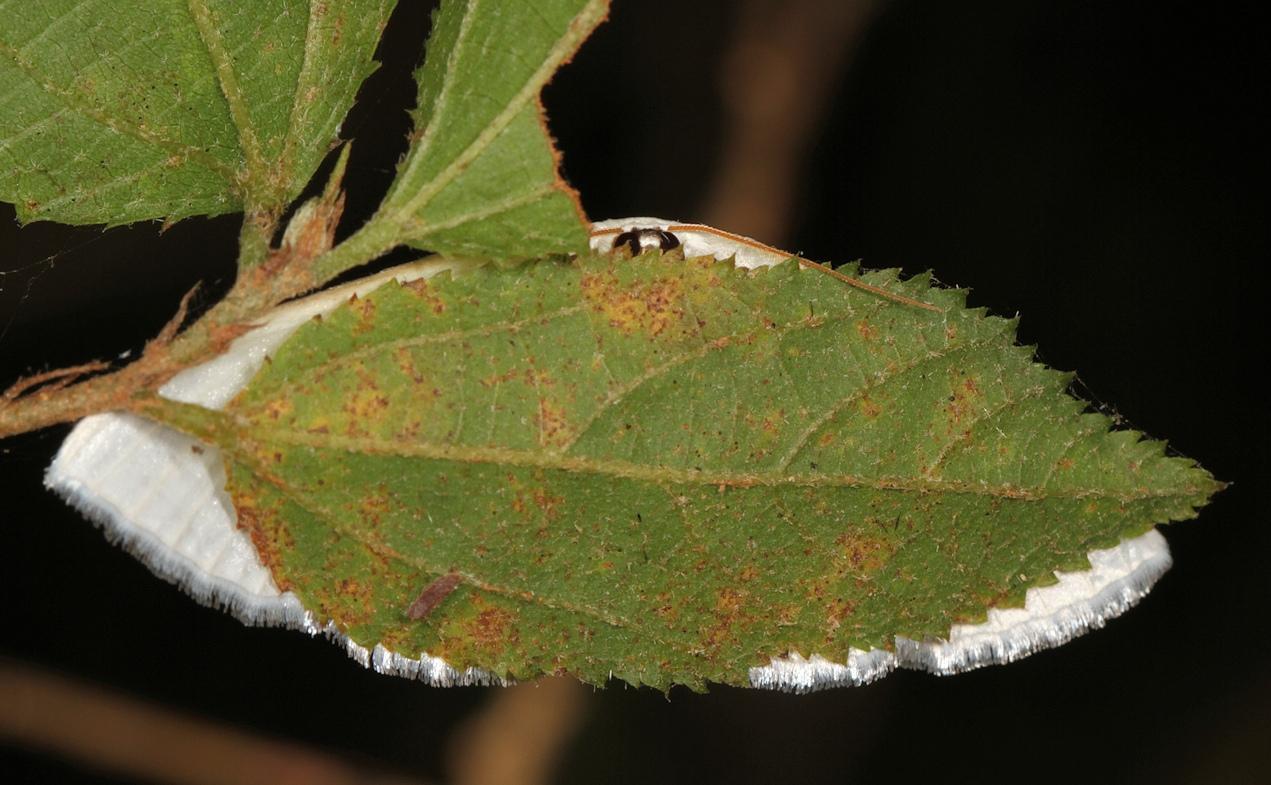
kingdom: Animalia
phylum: Arthropoda
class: Insecta
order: Lepidoptera
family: Geometridae
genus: Problepsis
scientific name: Problepsis digammata
